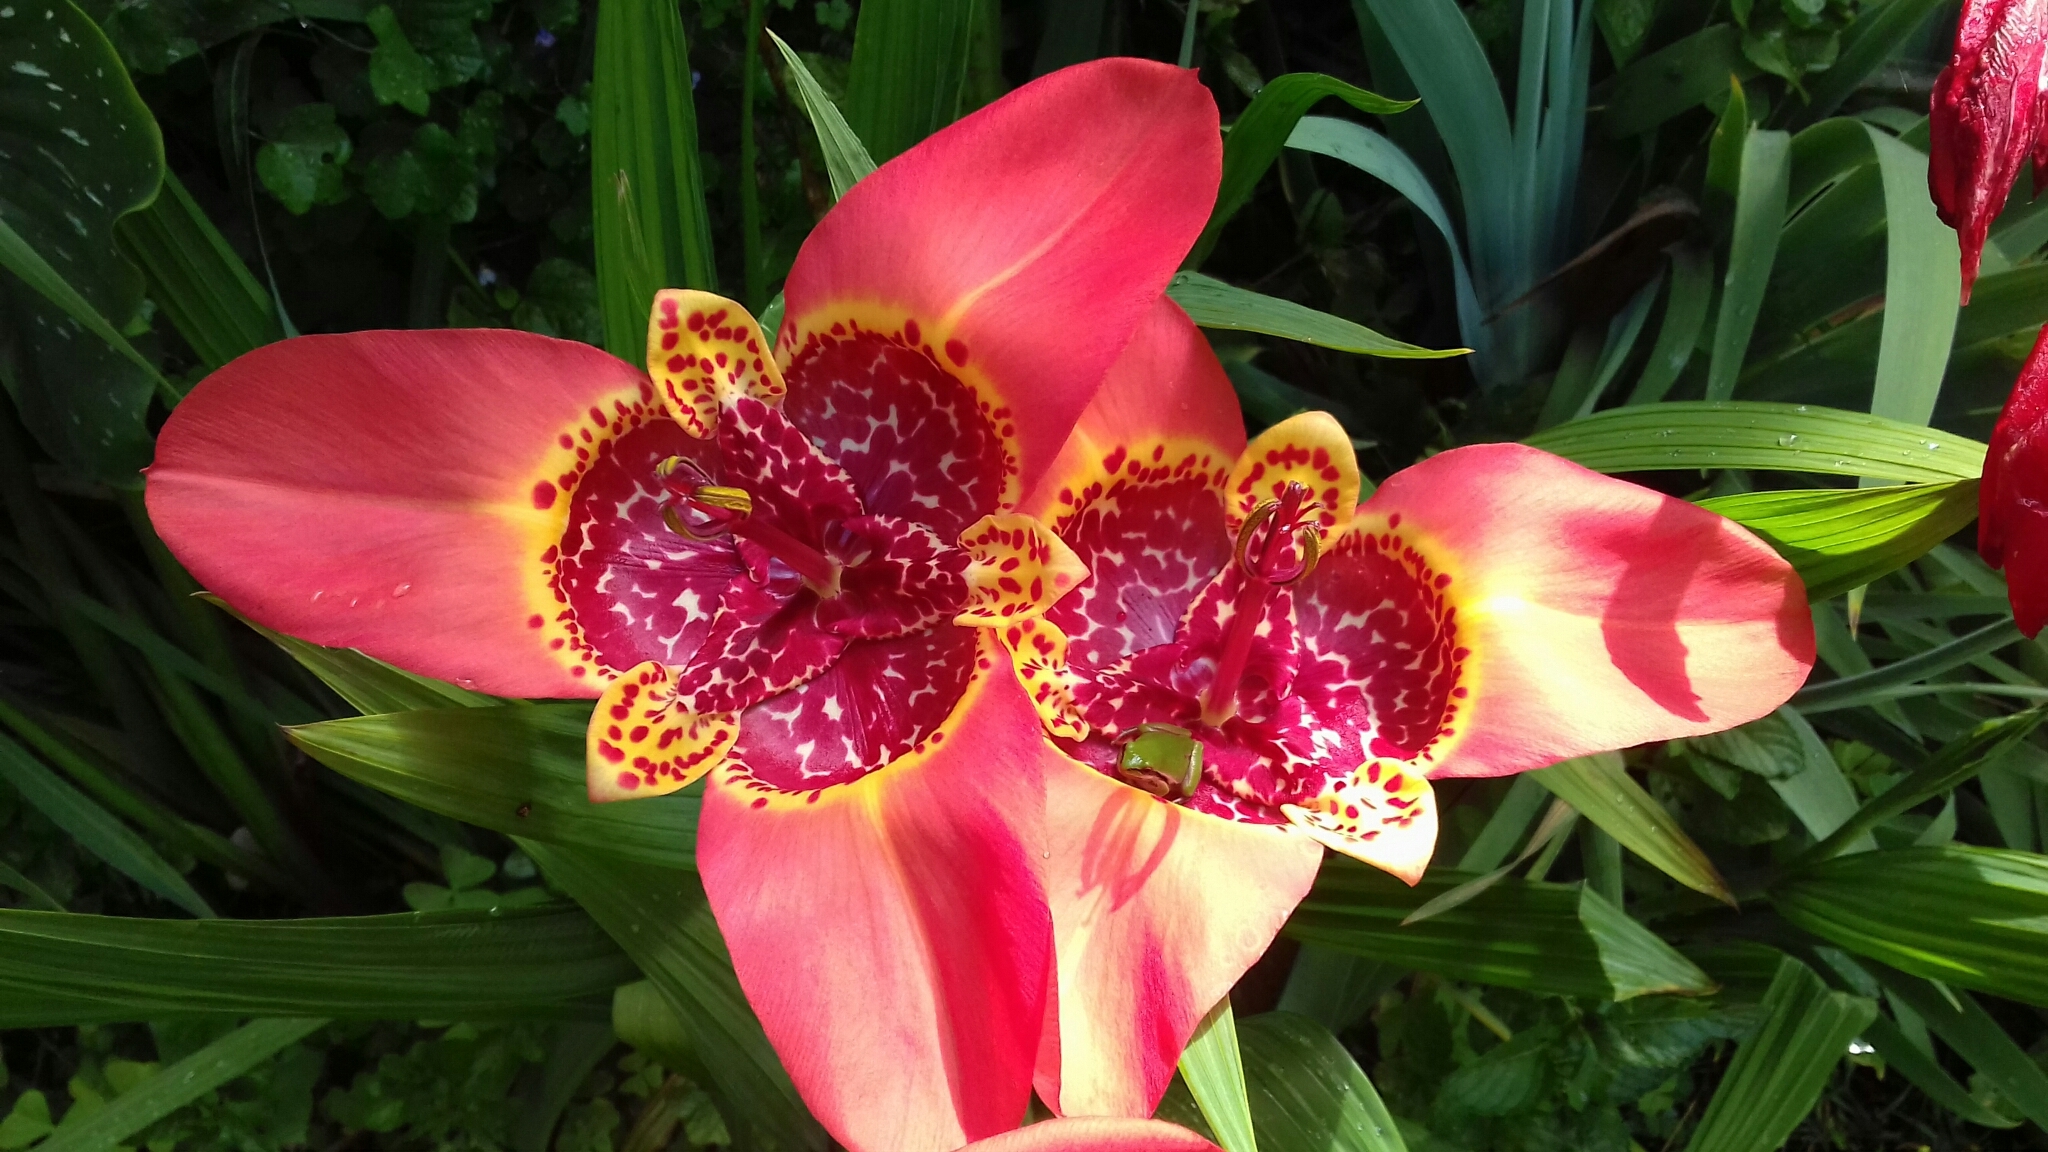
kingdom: Plantae
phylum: Tracheophyta
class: Liliopsida
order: Asparagales
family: Iridaceae
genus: Tigridia
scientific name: Tigridia pavonia
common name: Peacock-flower
